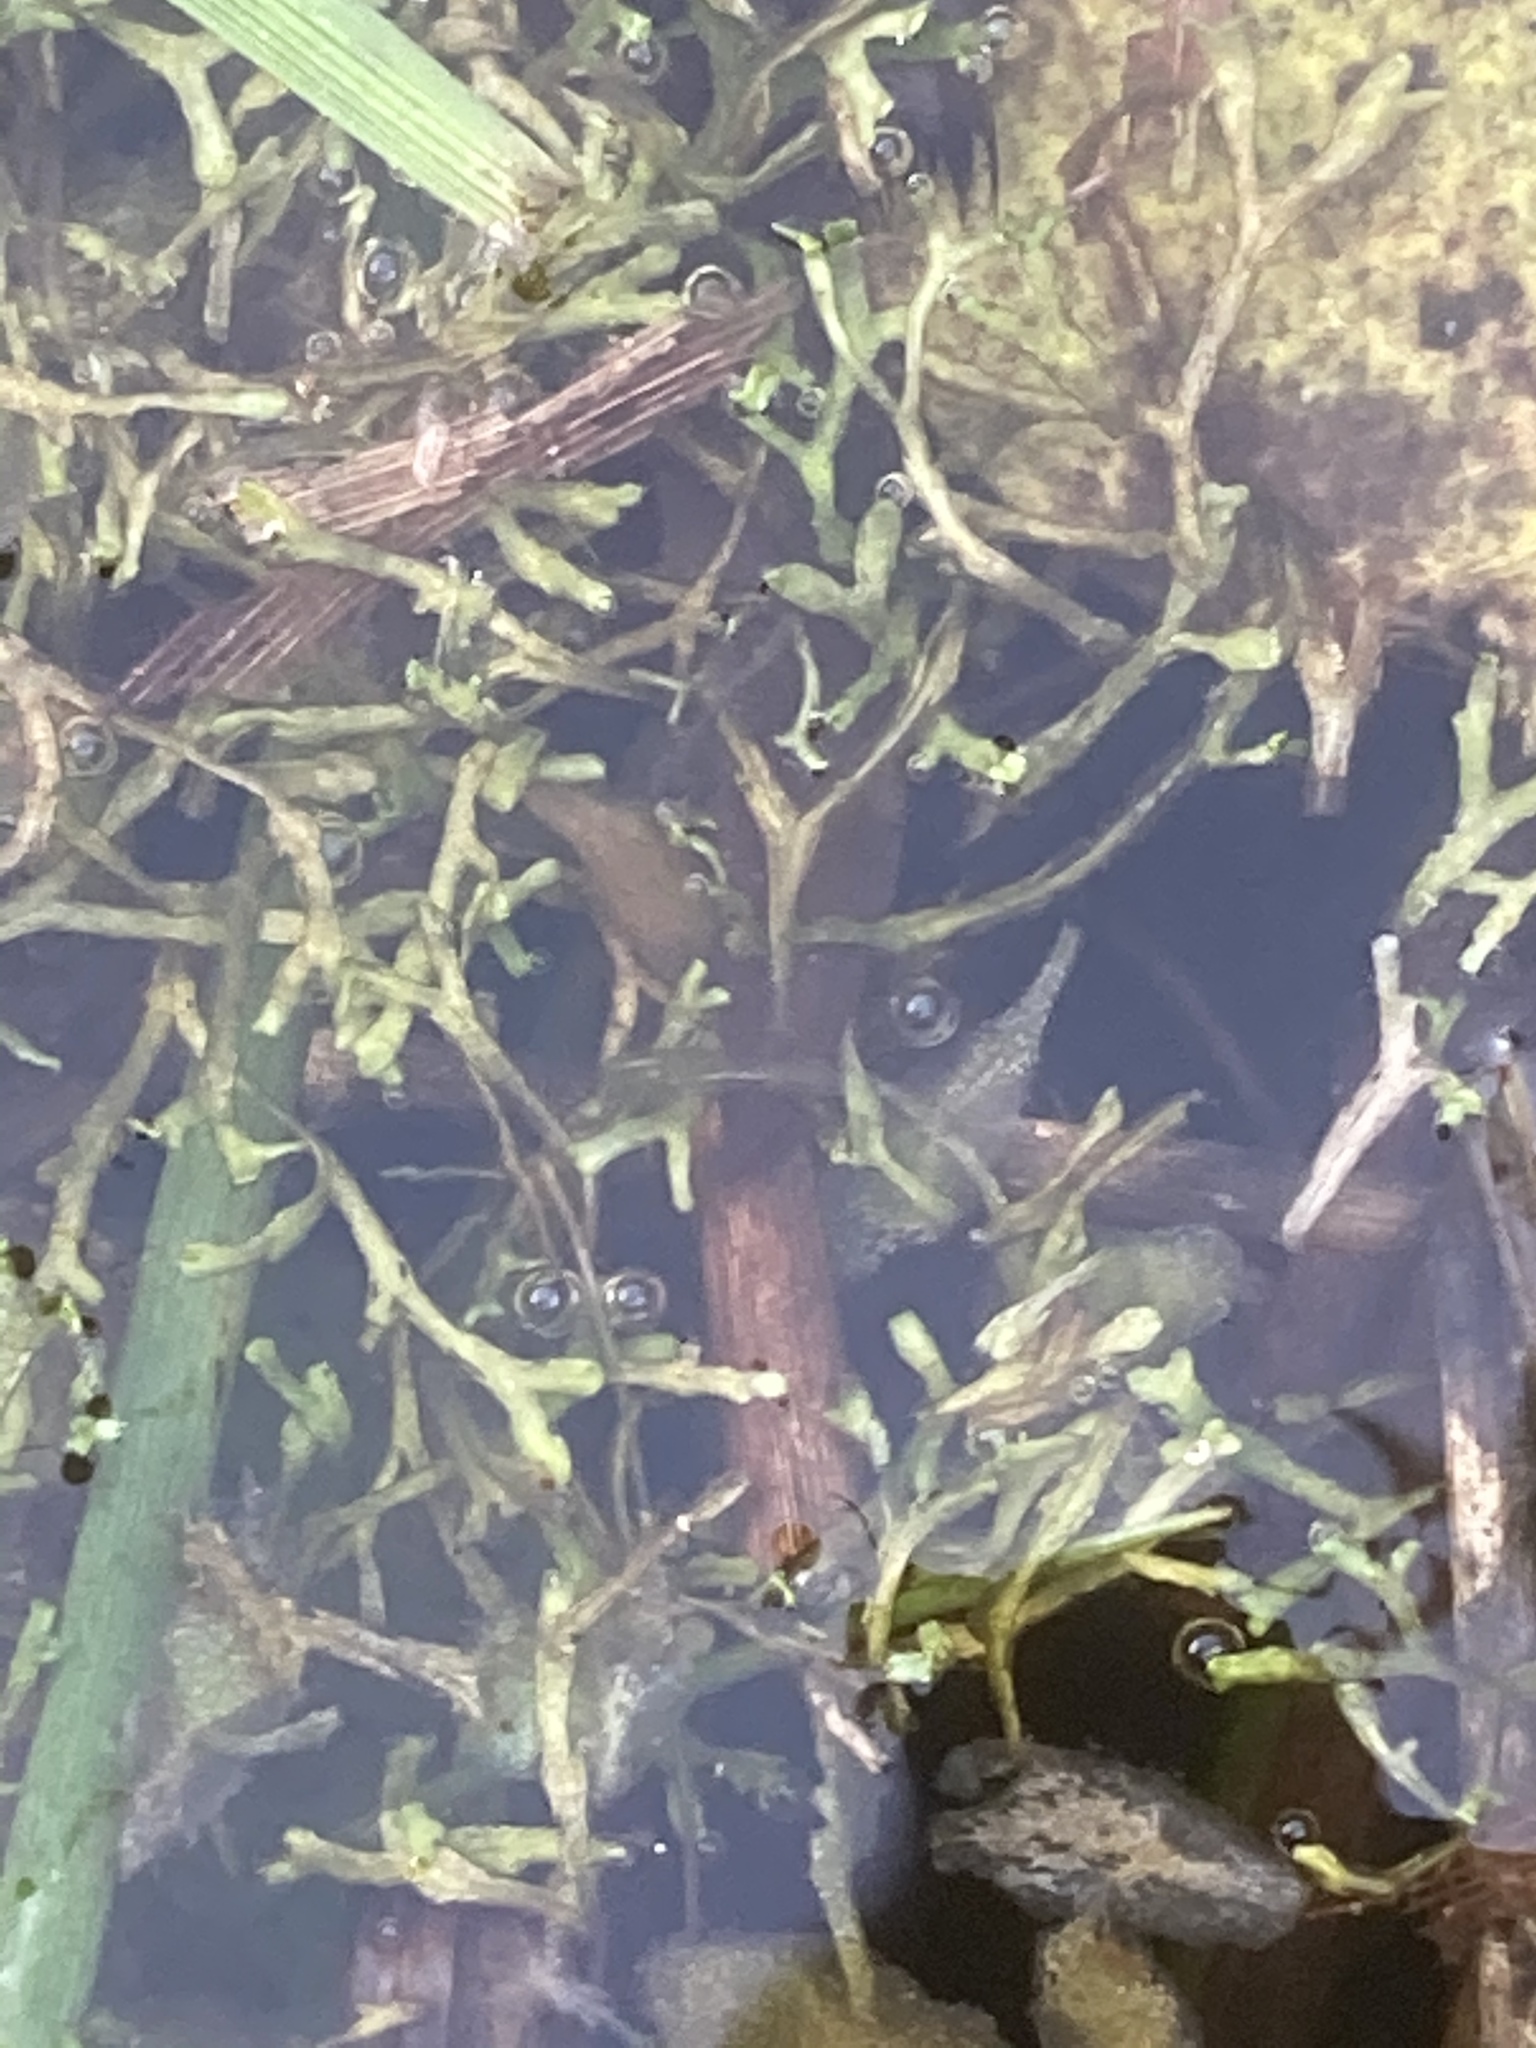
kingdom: Plantae
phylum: Marchantiophyta
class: Marchantiopsida
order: Marchantiales
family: Ricciaceae
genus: Riccia
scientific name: Riccia fluitans
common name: Floating crystalwort
